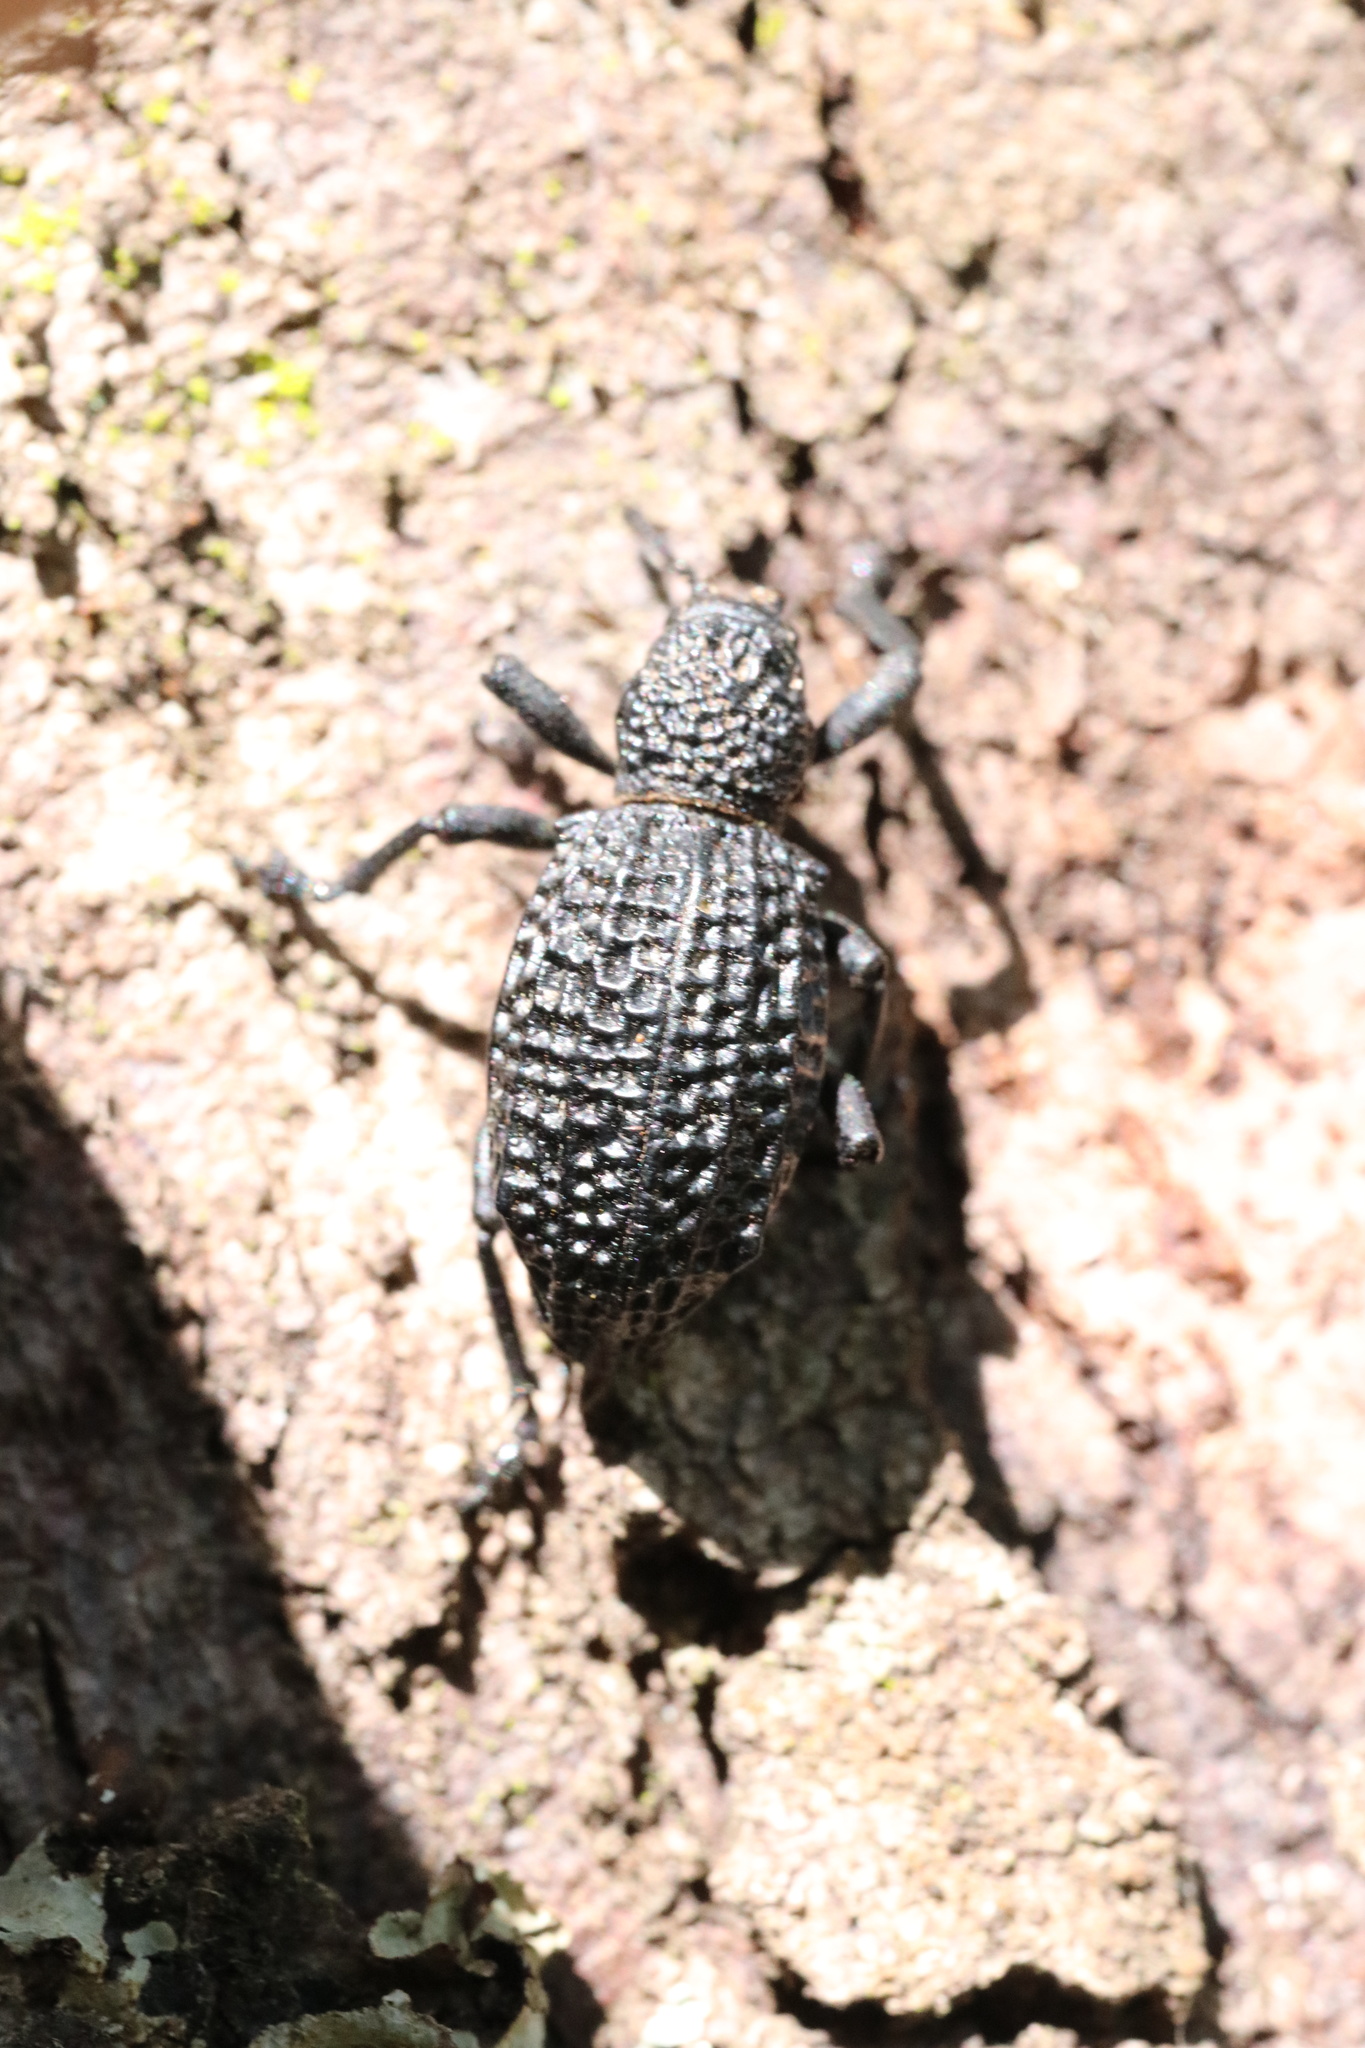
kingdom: Animalia
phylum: Arthropoda
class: Insecta
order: Coleoptera
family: Curculionidae
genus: Aegorhinus
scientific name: Aegorhinus superciliosus
